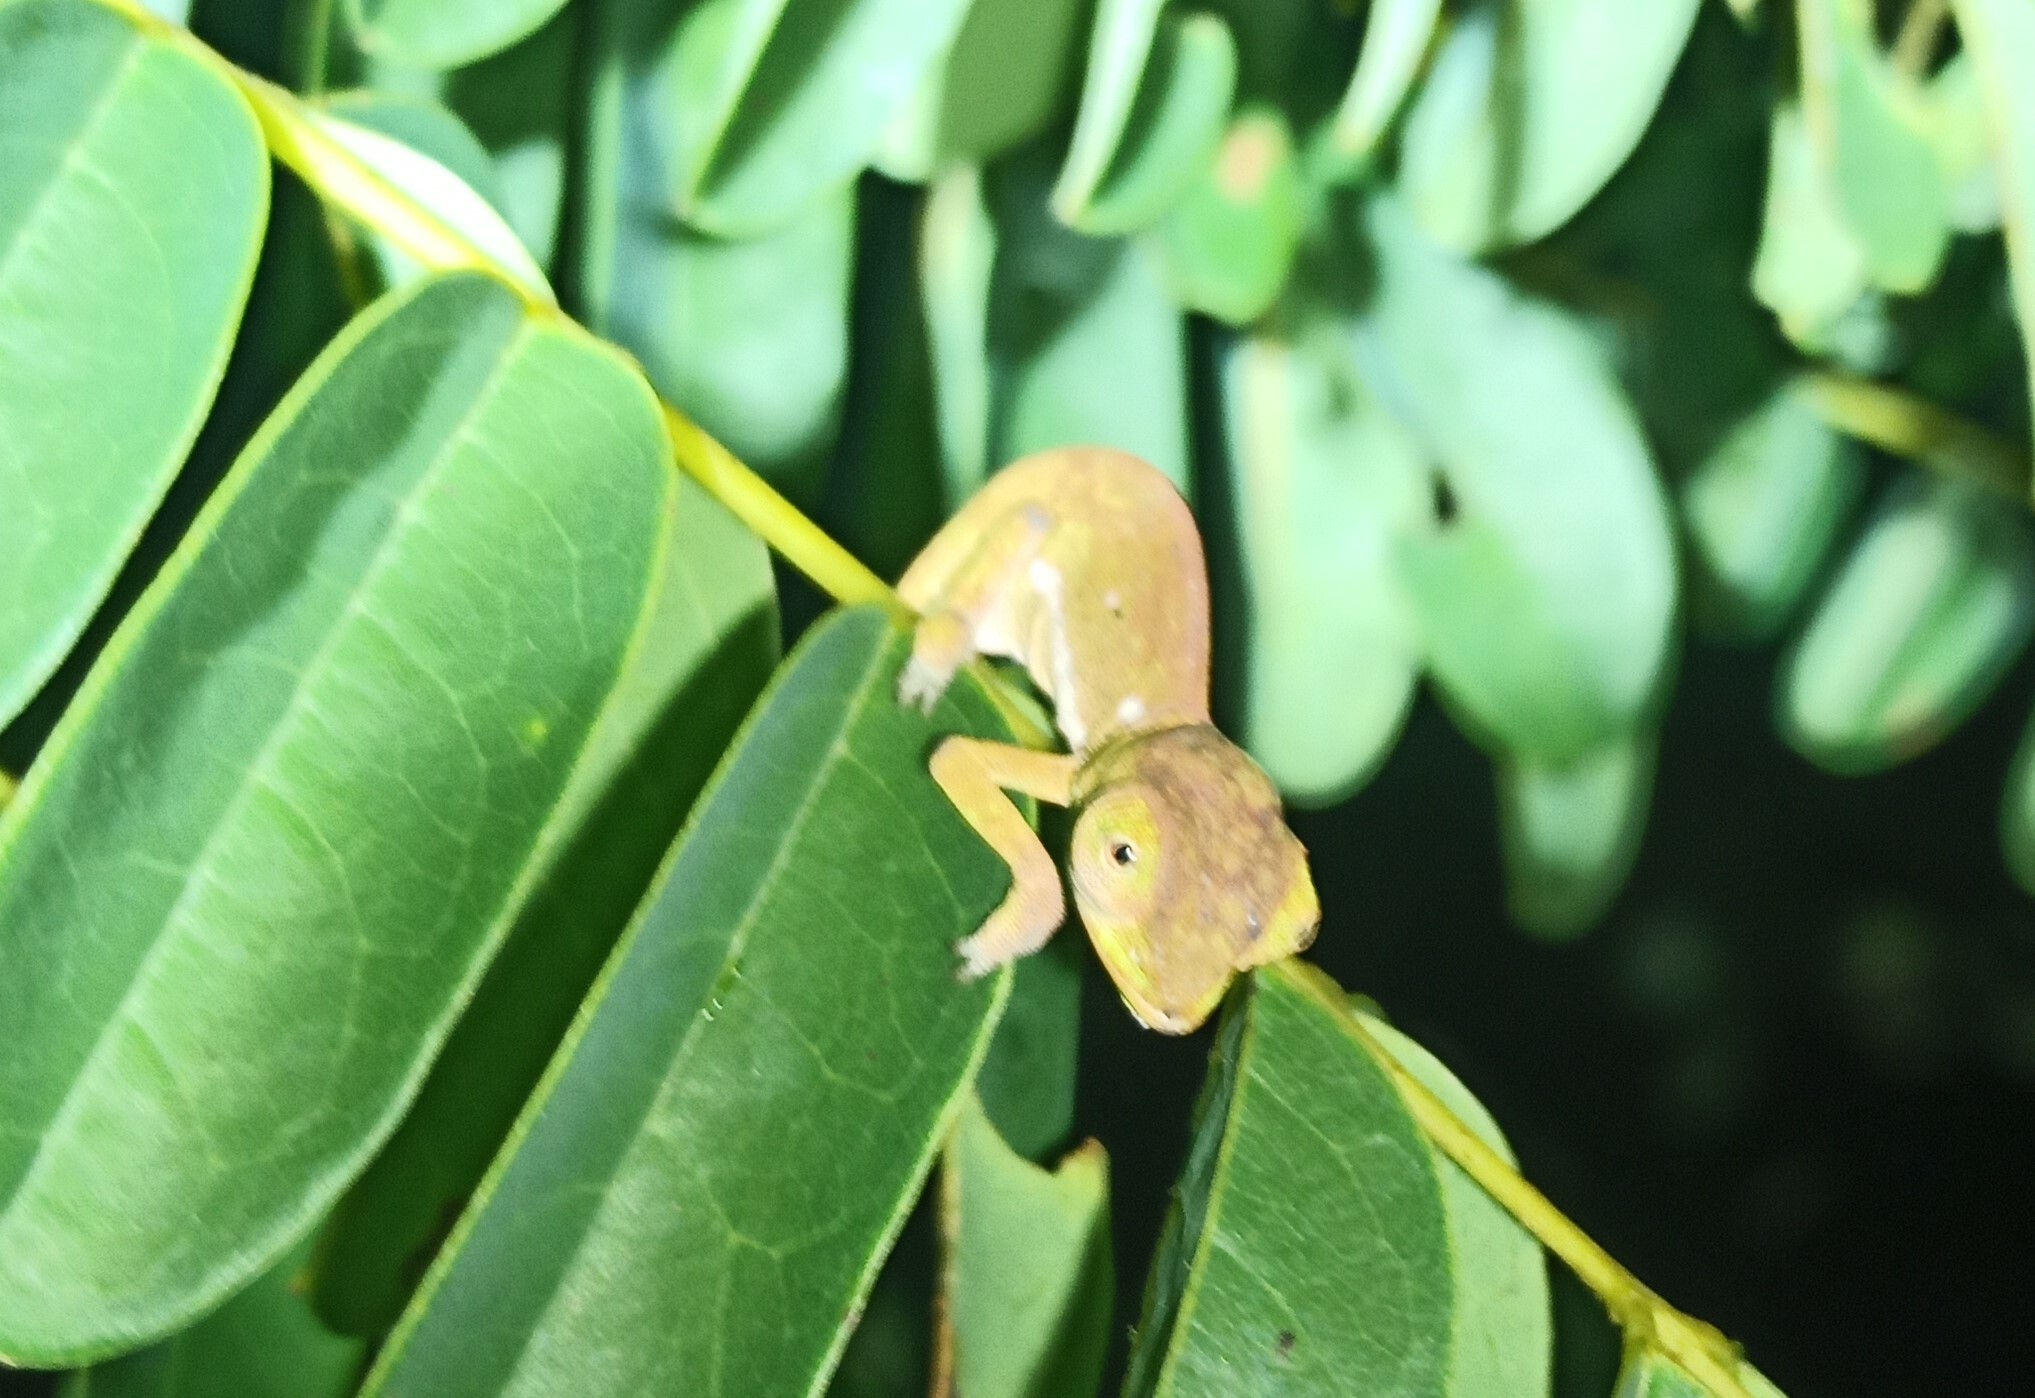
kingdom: Animalia
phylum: Chordata
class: Squamata
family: Chamaeleonidae
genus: Chamaeleo
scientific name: Chamaeleo dilepis
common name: Flapneck chameleon
